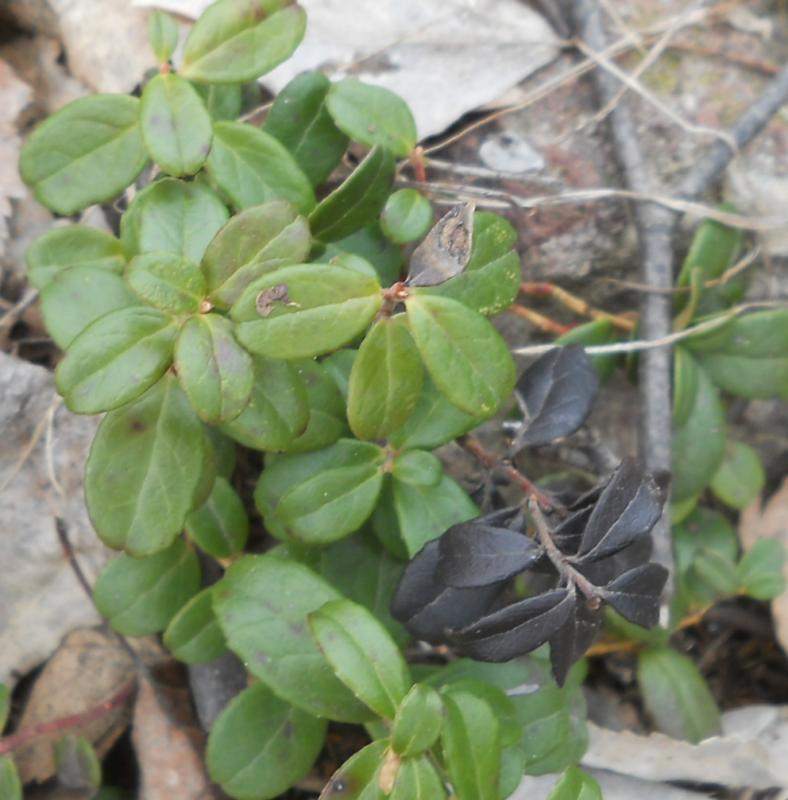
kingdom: Plantae
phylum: Tracheophyta
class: Magnoliopsida
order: Ericales
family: Ericaceae
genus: Vaccinium
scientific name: Vaccinium vitis-idaea
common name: Cowberry
